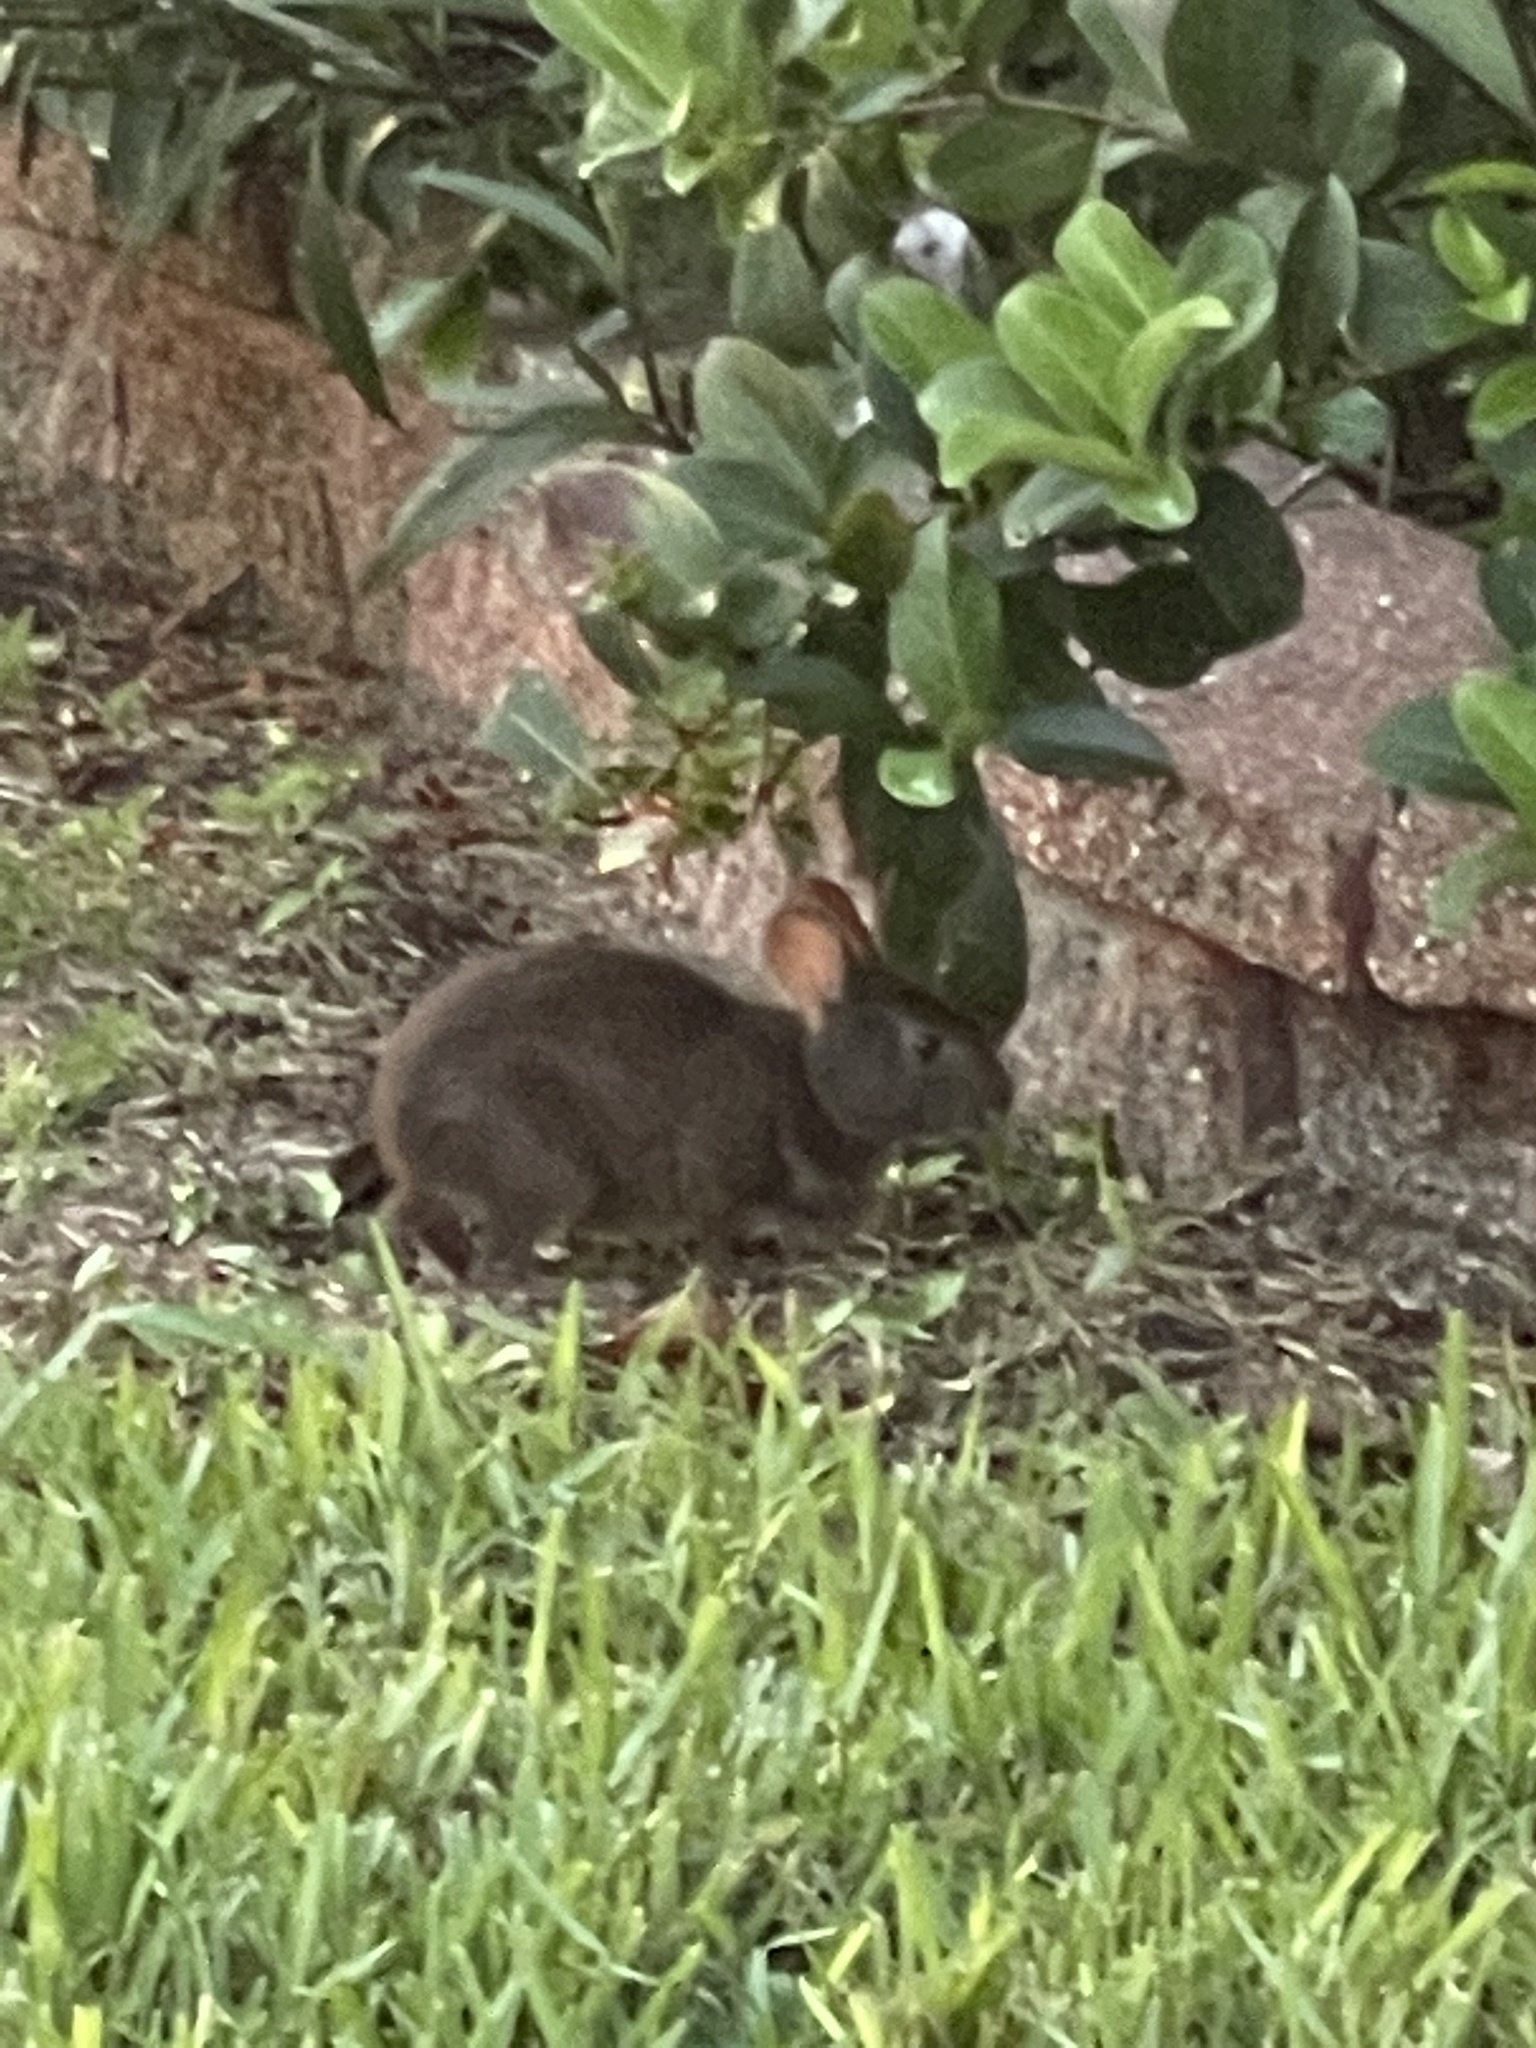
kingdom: Animalia
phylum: Chordata
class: Mammalia
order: Lagomorpha
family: Leporidae
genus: Sylvilagus
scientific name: Sylvilagus palustris
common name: Marsh rabbit
